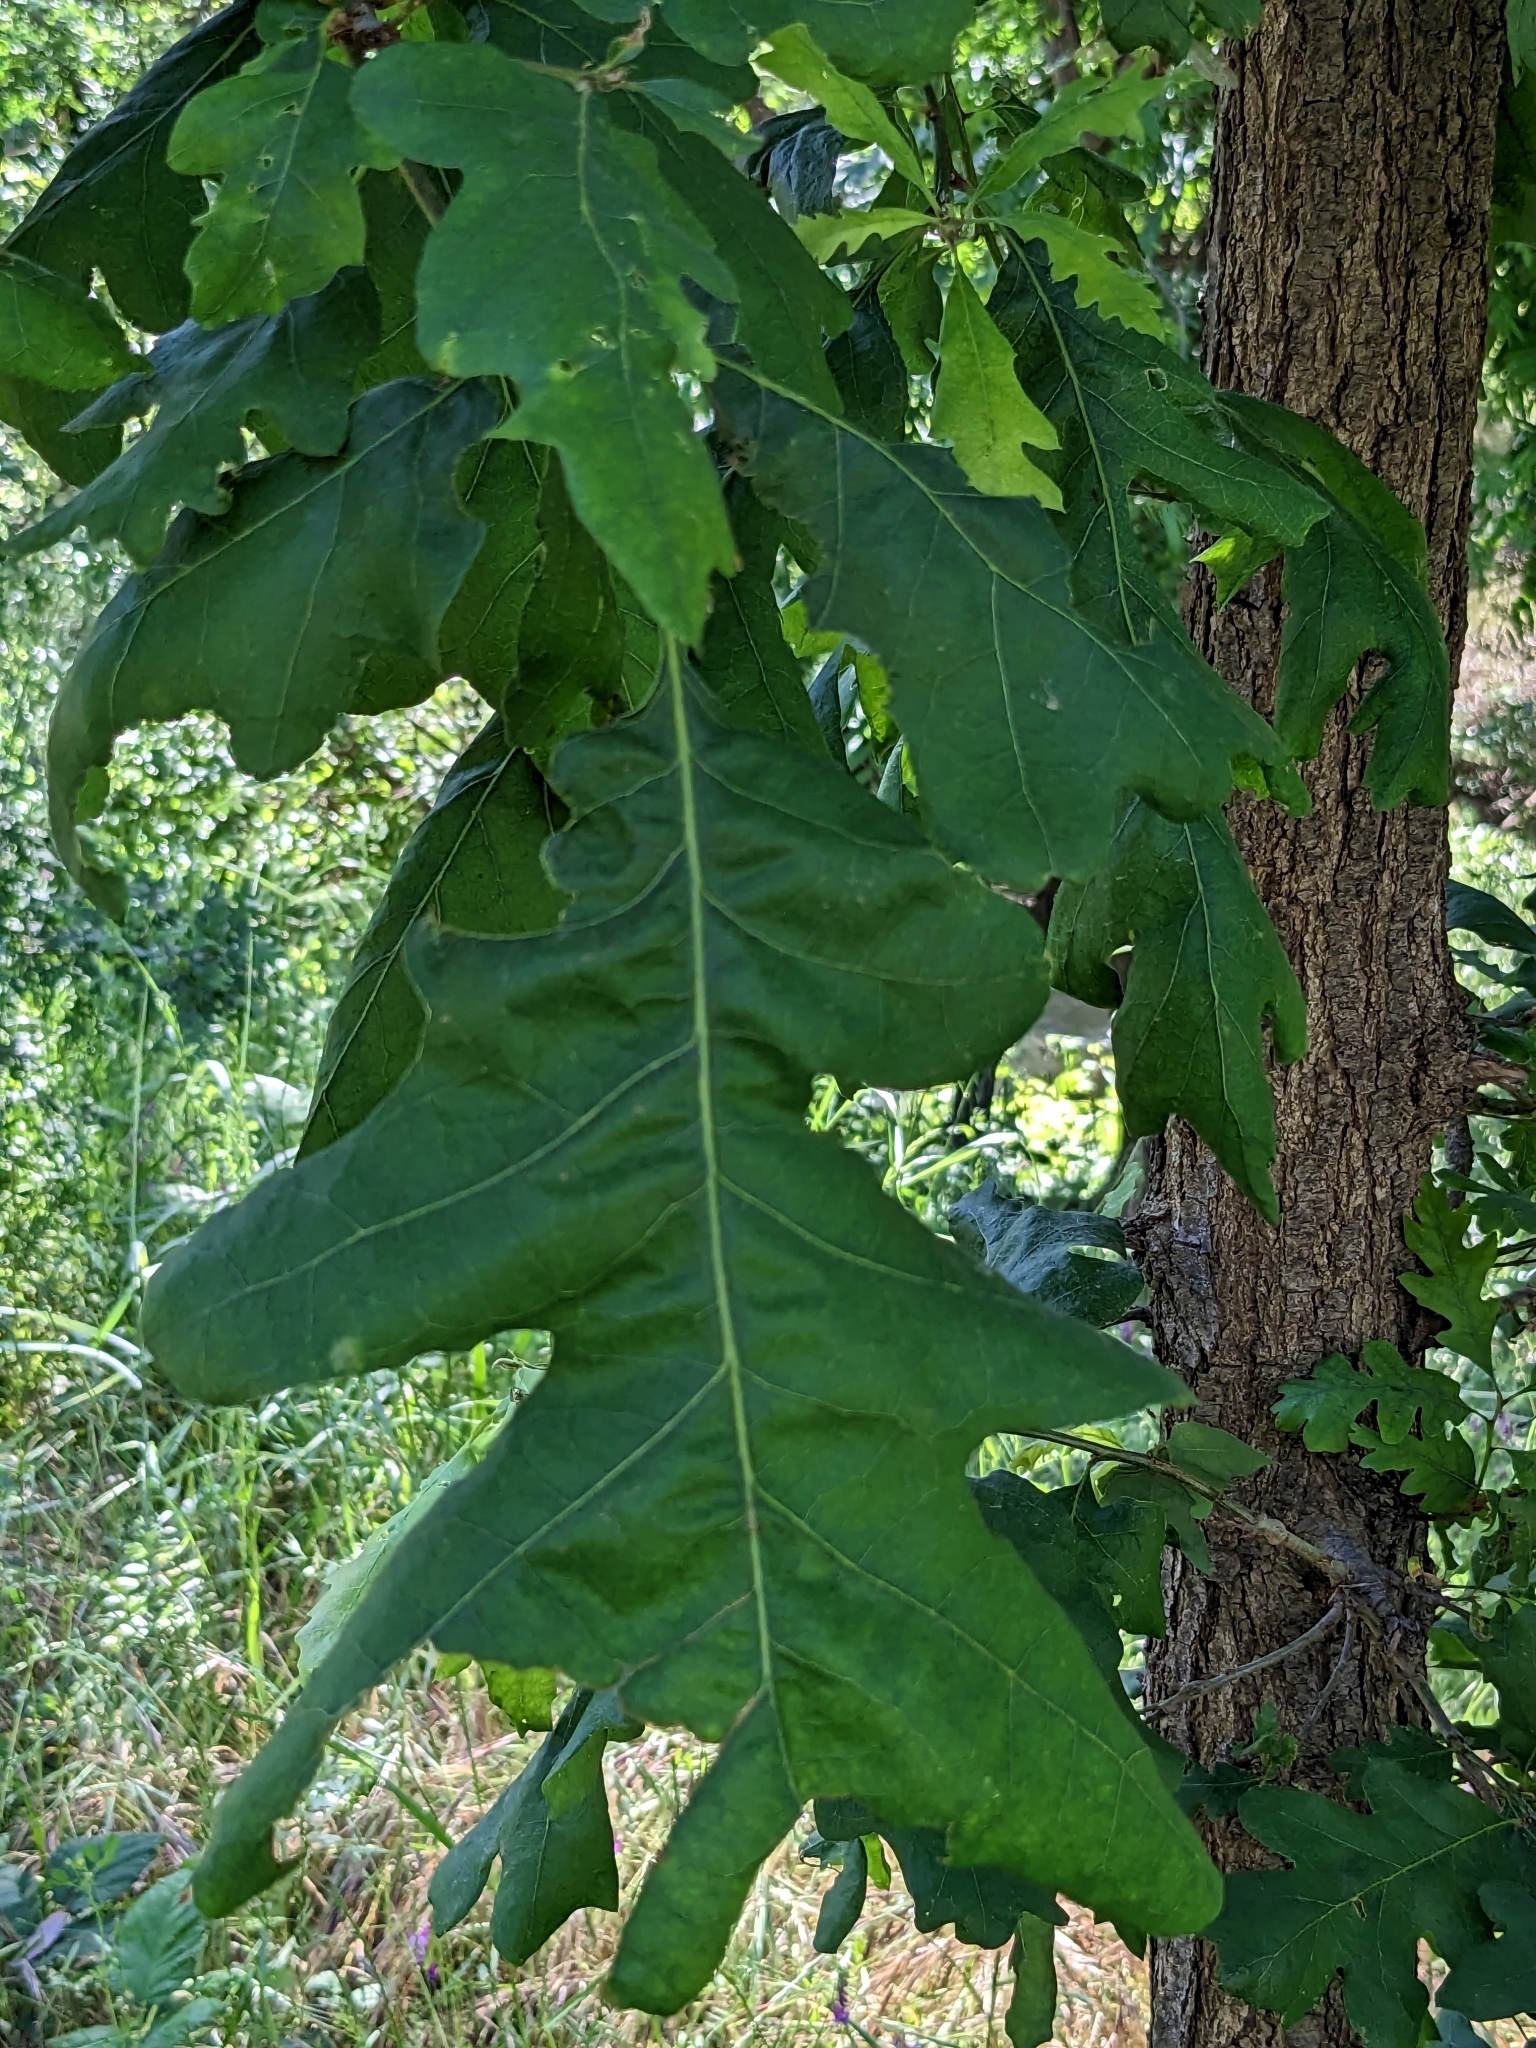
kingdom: Plantae
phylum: Tracheophyta
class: Magnoliopsida
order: Fagales
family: Fagaceae
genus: Quercus
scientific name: Quercus lobata
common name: Valley oak
